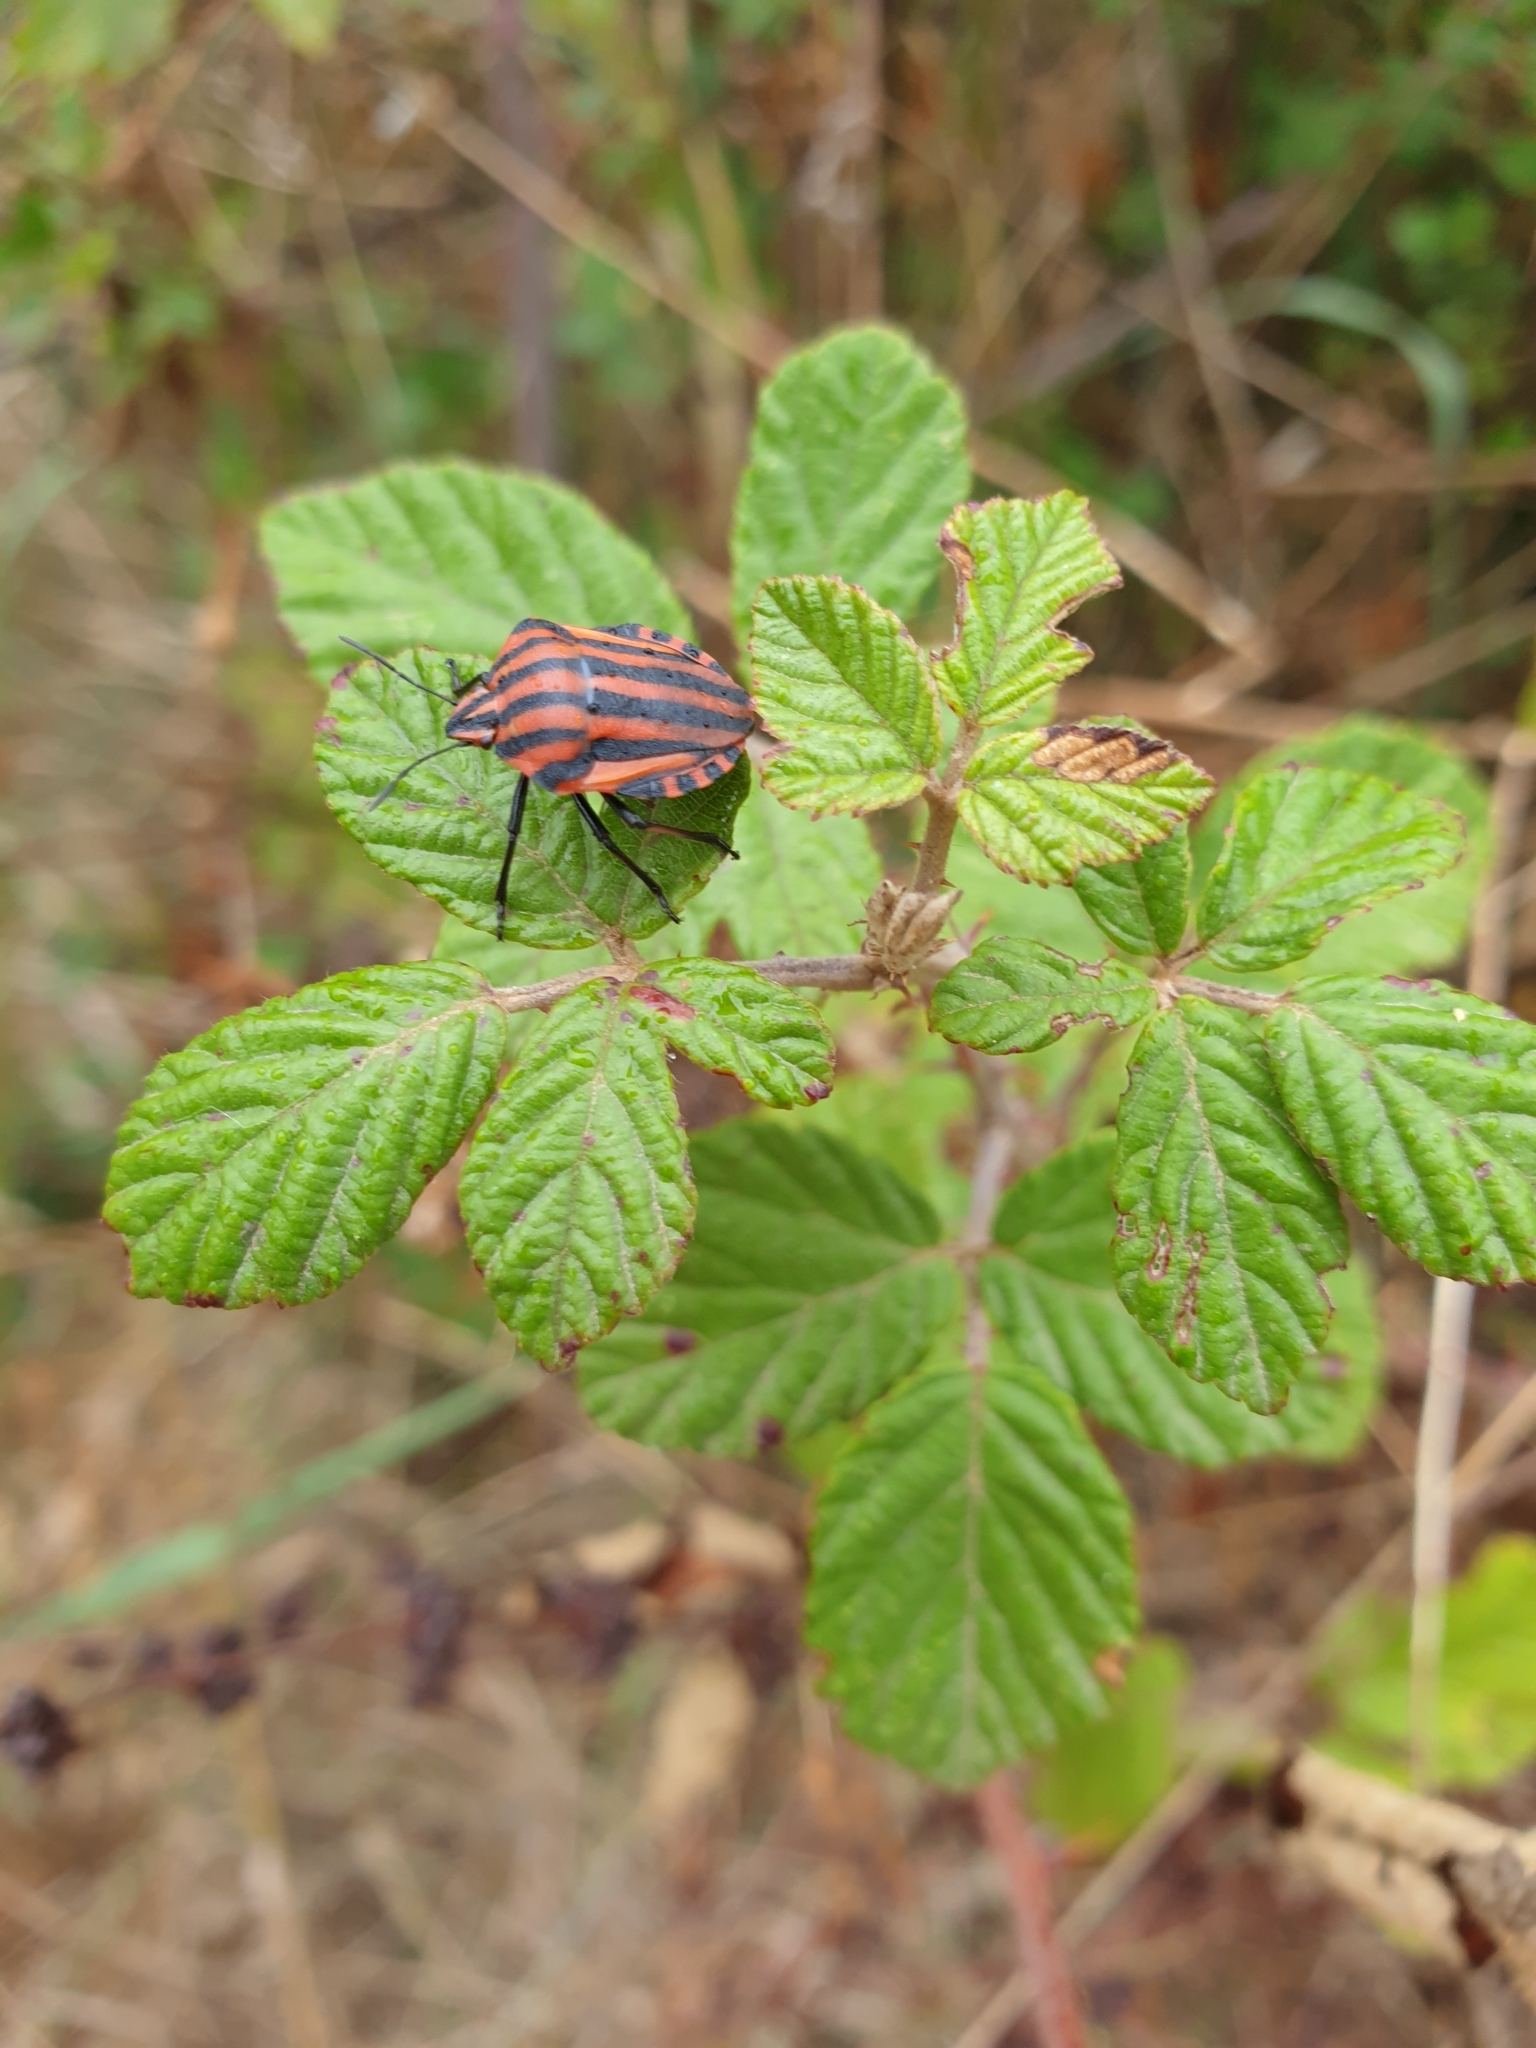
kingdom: Animalia
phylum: Arthropoda
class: Insecta
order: Hemiptera
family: Pentatomidae
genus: Graphosoma
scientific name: Graphosoma italicum
